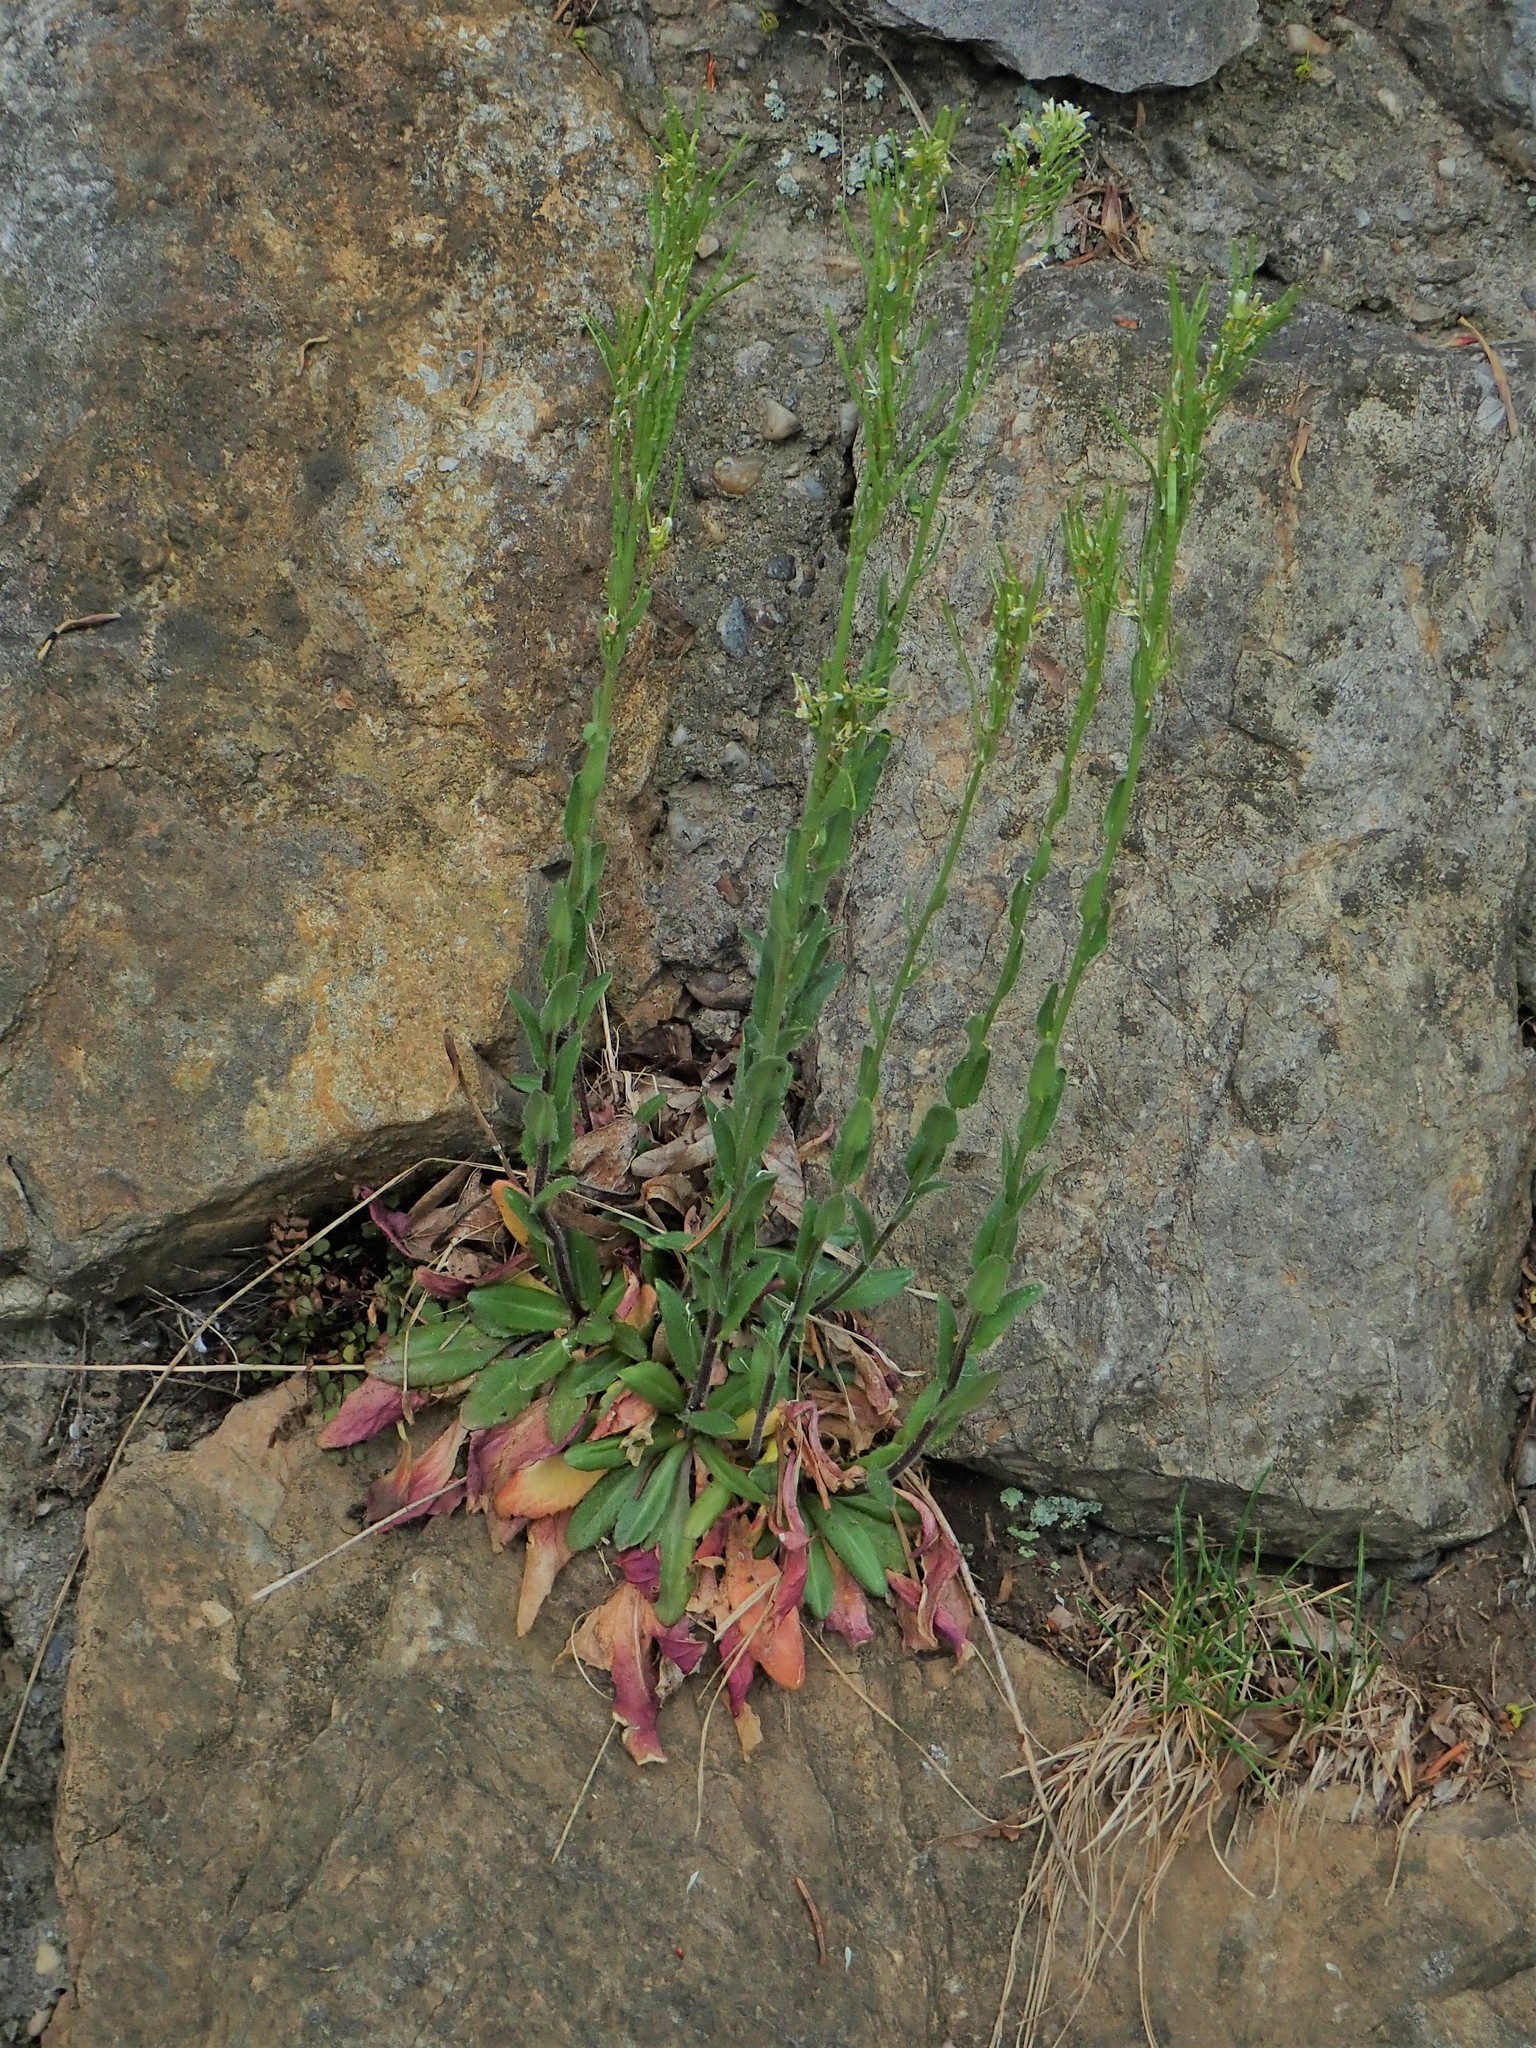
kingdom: Plantae
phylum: Tracheophyta
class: Magnoliopsida
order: Brassicales
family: Brassicaceae
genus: Arabis
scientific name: Arabis hirsuta
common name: Hairy rock-cress
